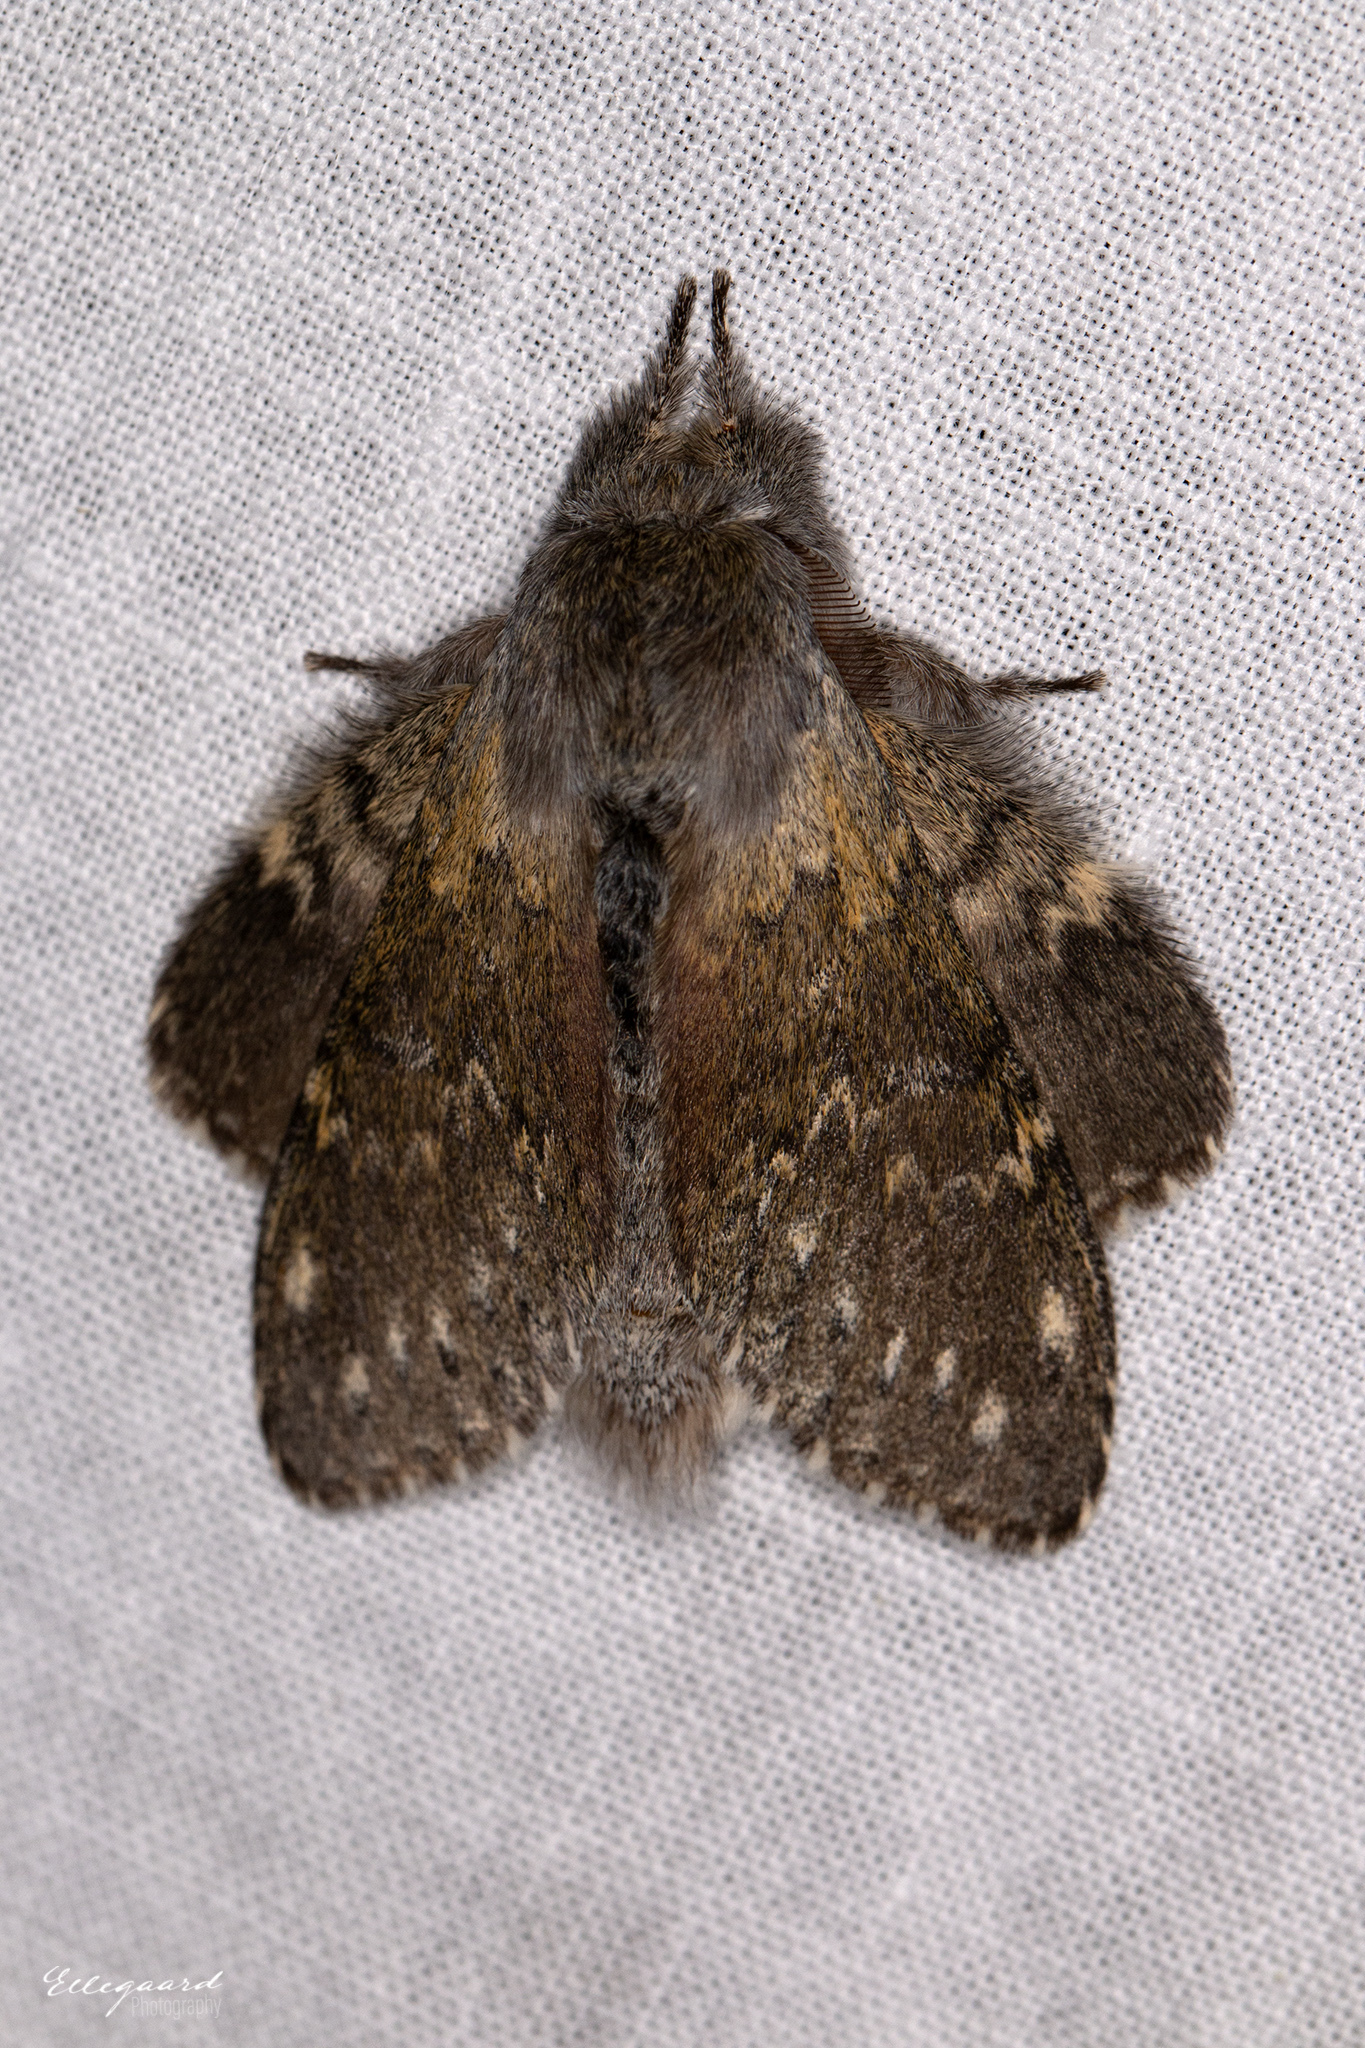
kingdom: Animalia
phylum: Arthropoda
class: Insecta
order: Lepidoptera
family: Notodontidae
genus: Stauropus
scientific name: Stauropus fagi
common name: Lobster moth
